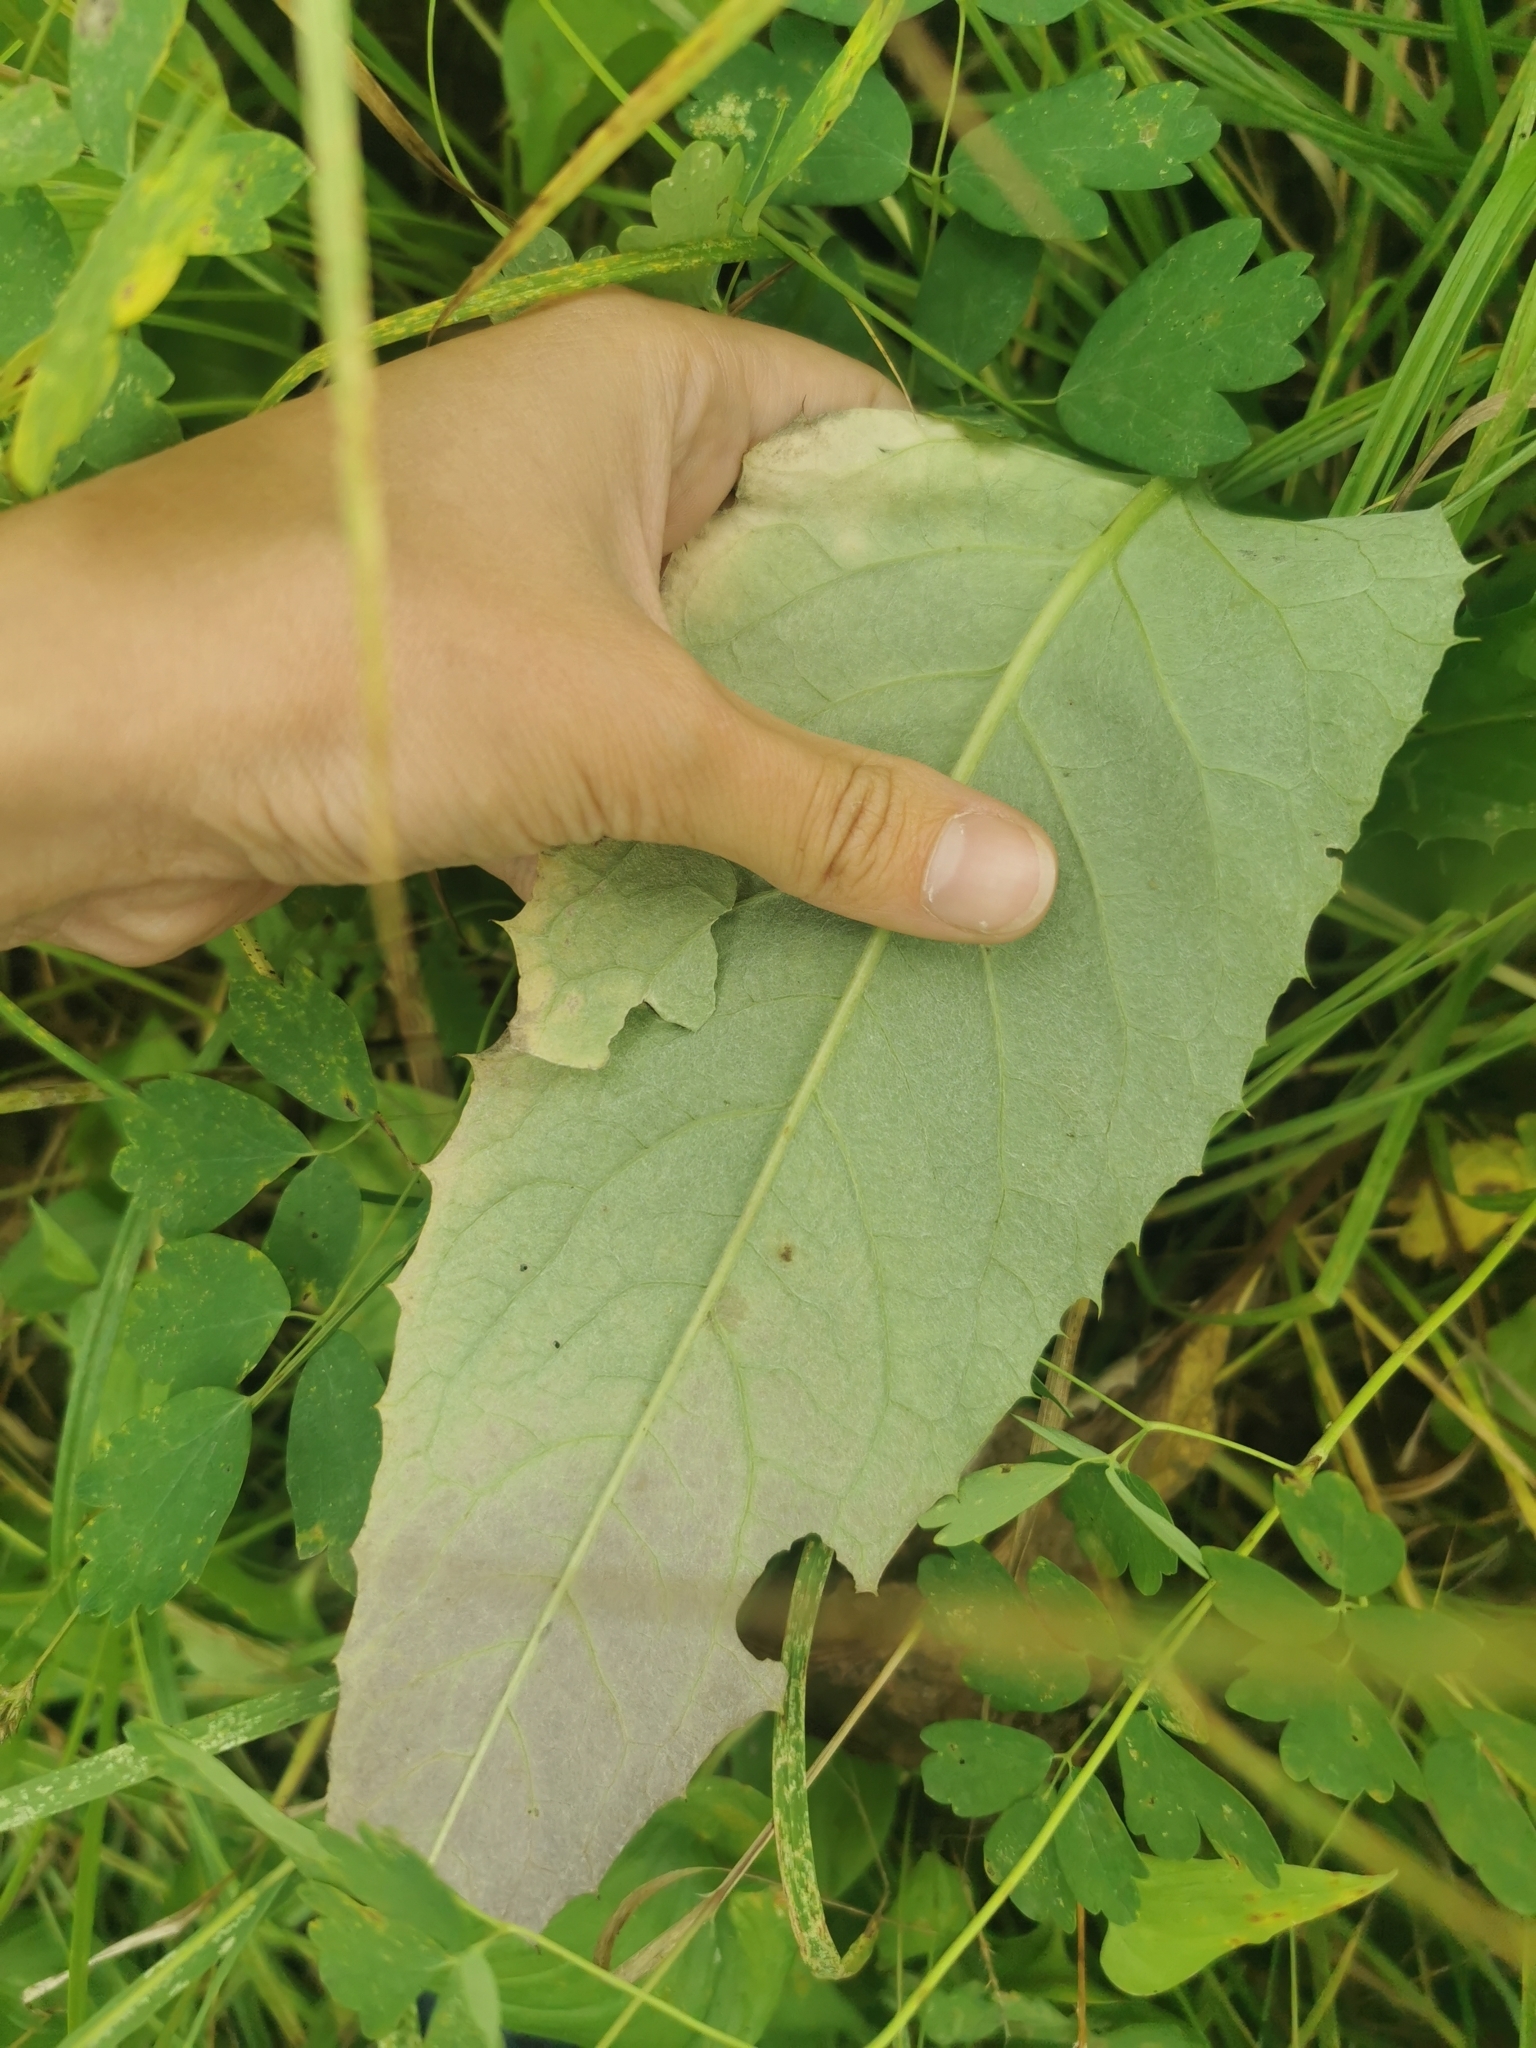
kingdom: Plantae
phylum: Tracheophyta
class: Magnoliopsida
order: Asterales
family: Asteraceae
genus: Saussurea
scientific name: Saussurea pseudotilesii
